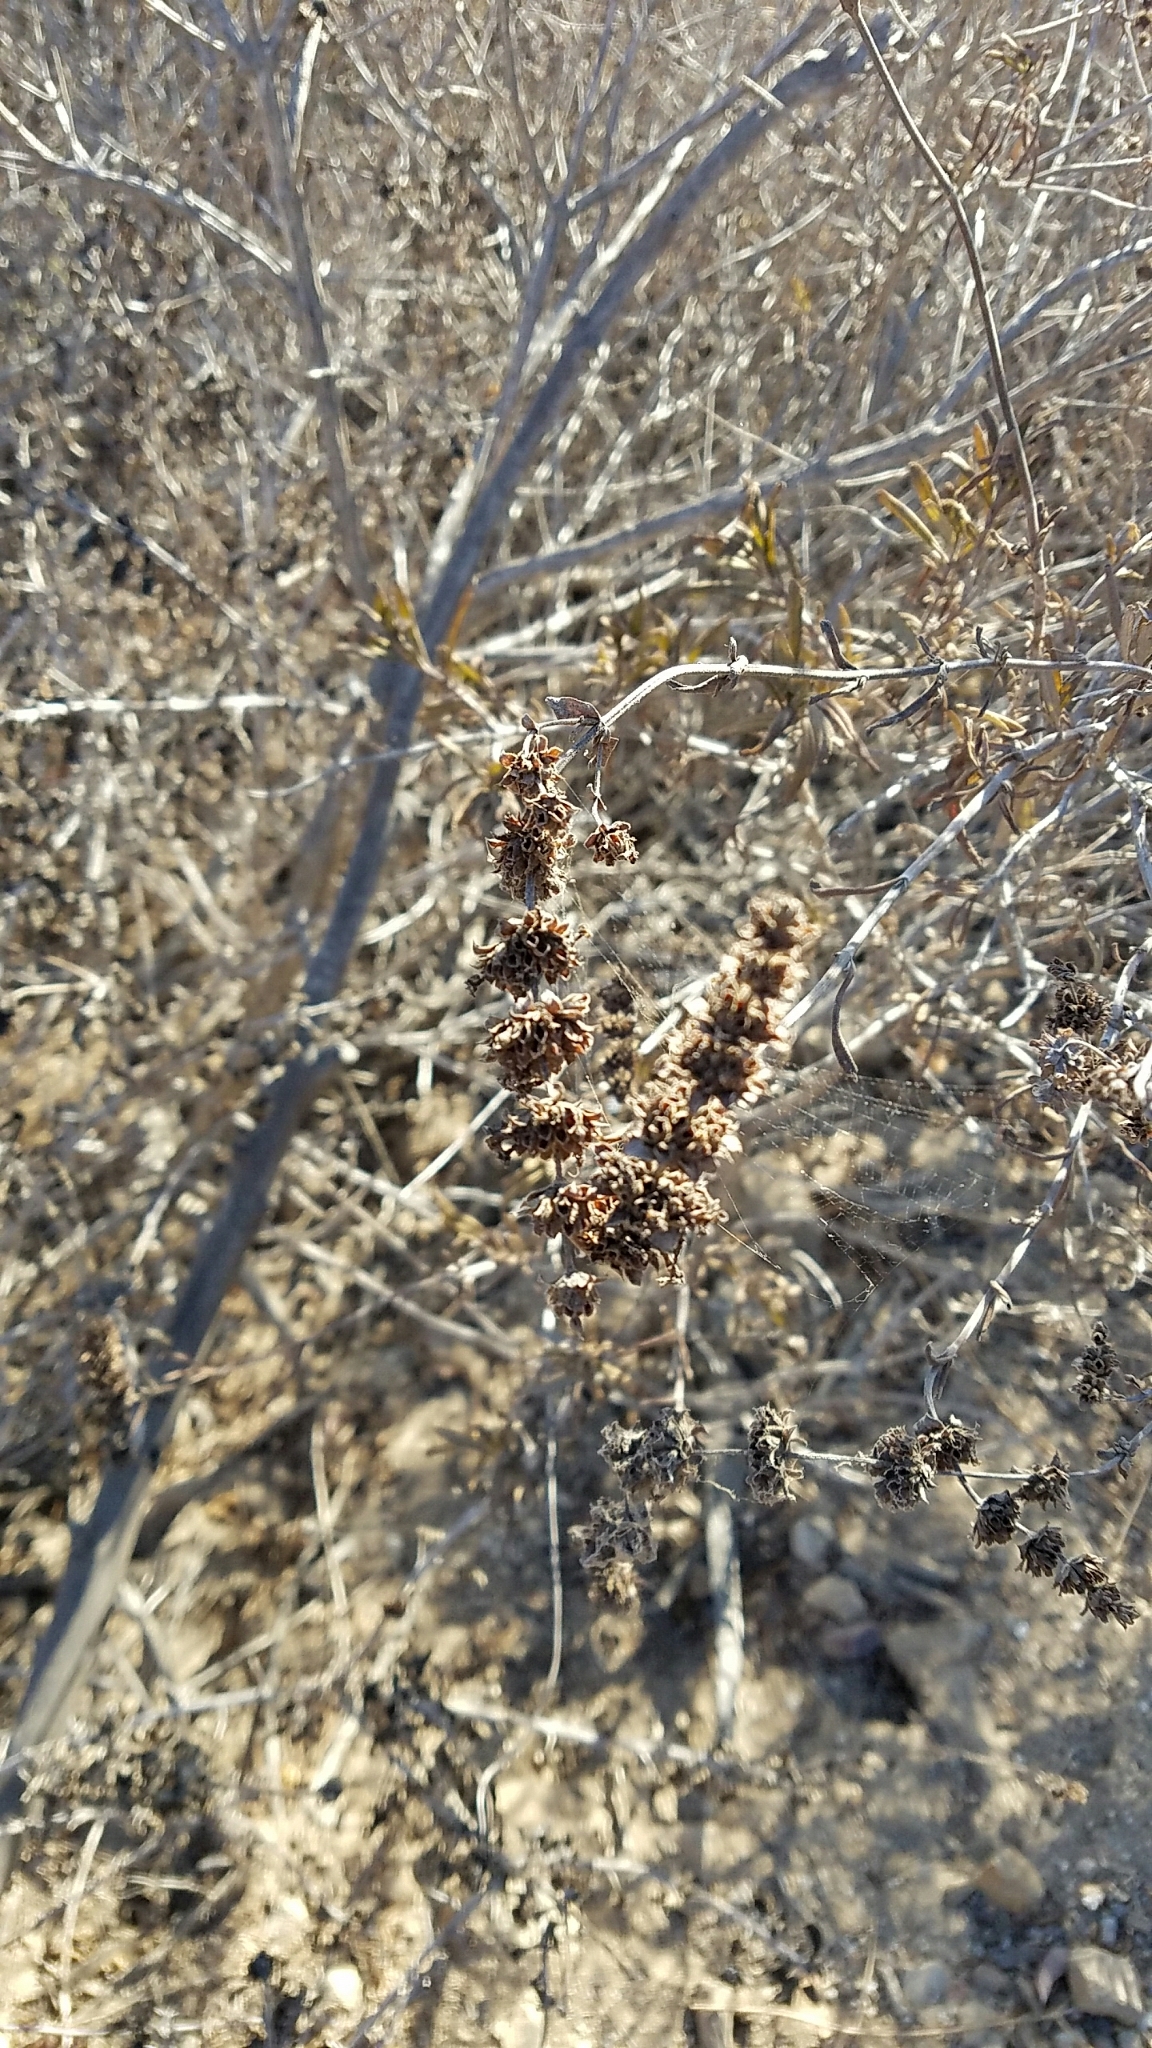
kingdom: Plantae
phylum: Tracheophyta
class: Magnoliopsida
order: Lamiales
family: Lamiaceae
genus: Salvia
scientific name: Salvia mellifera
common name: Black sage
